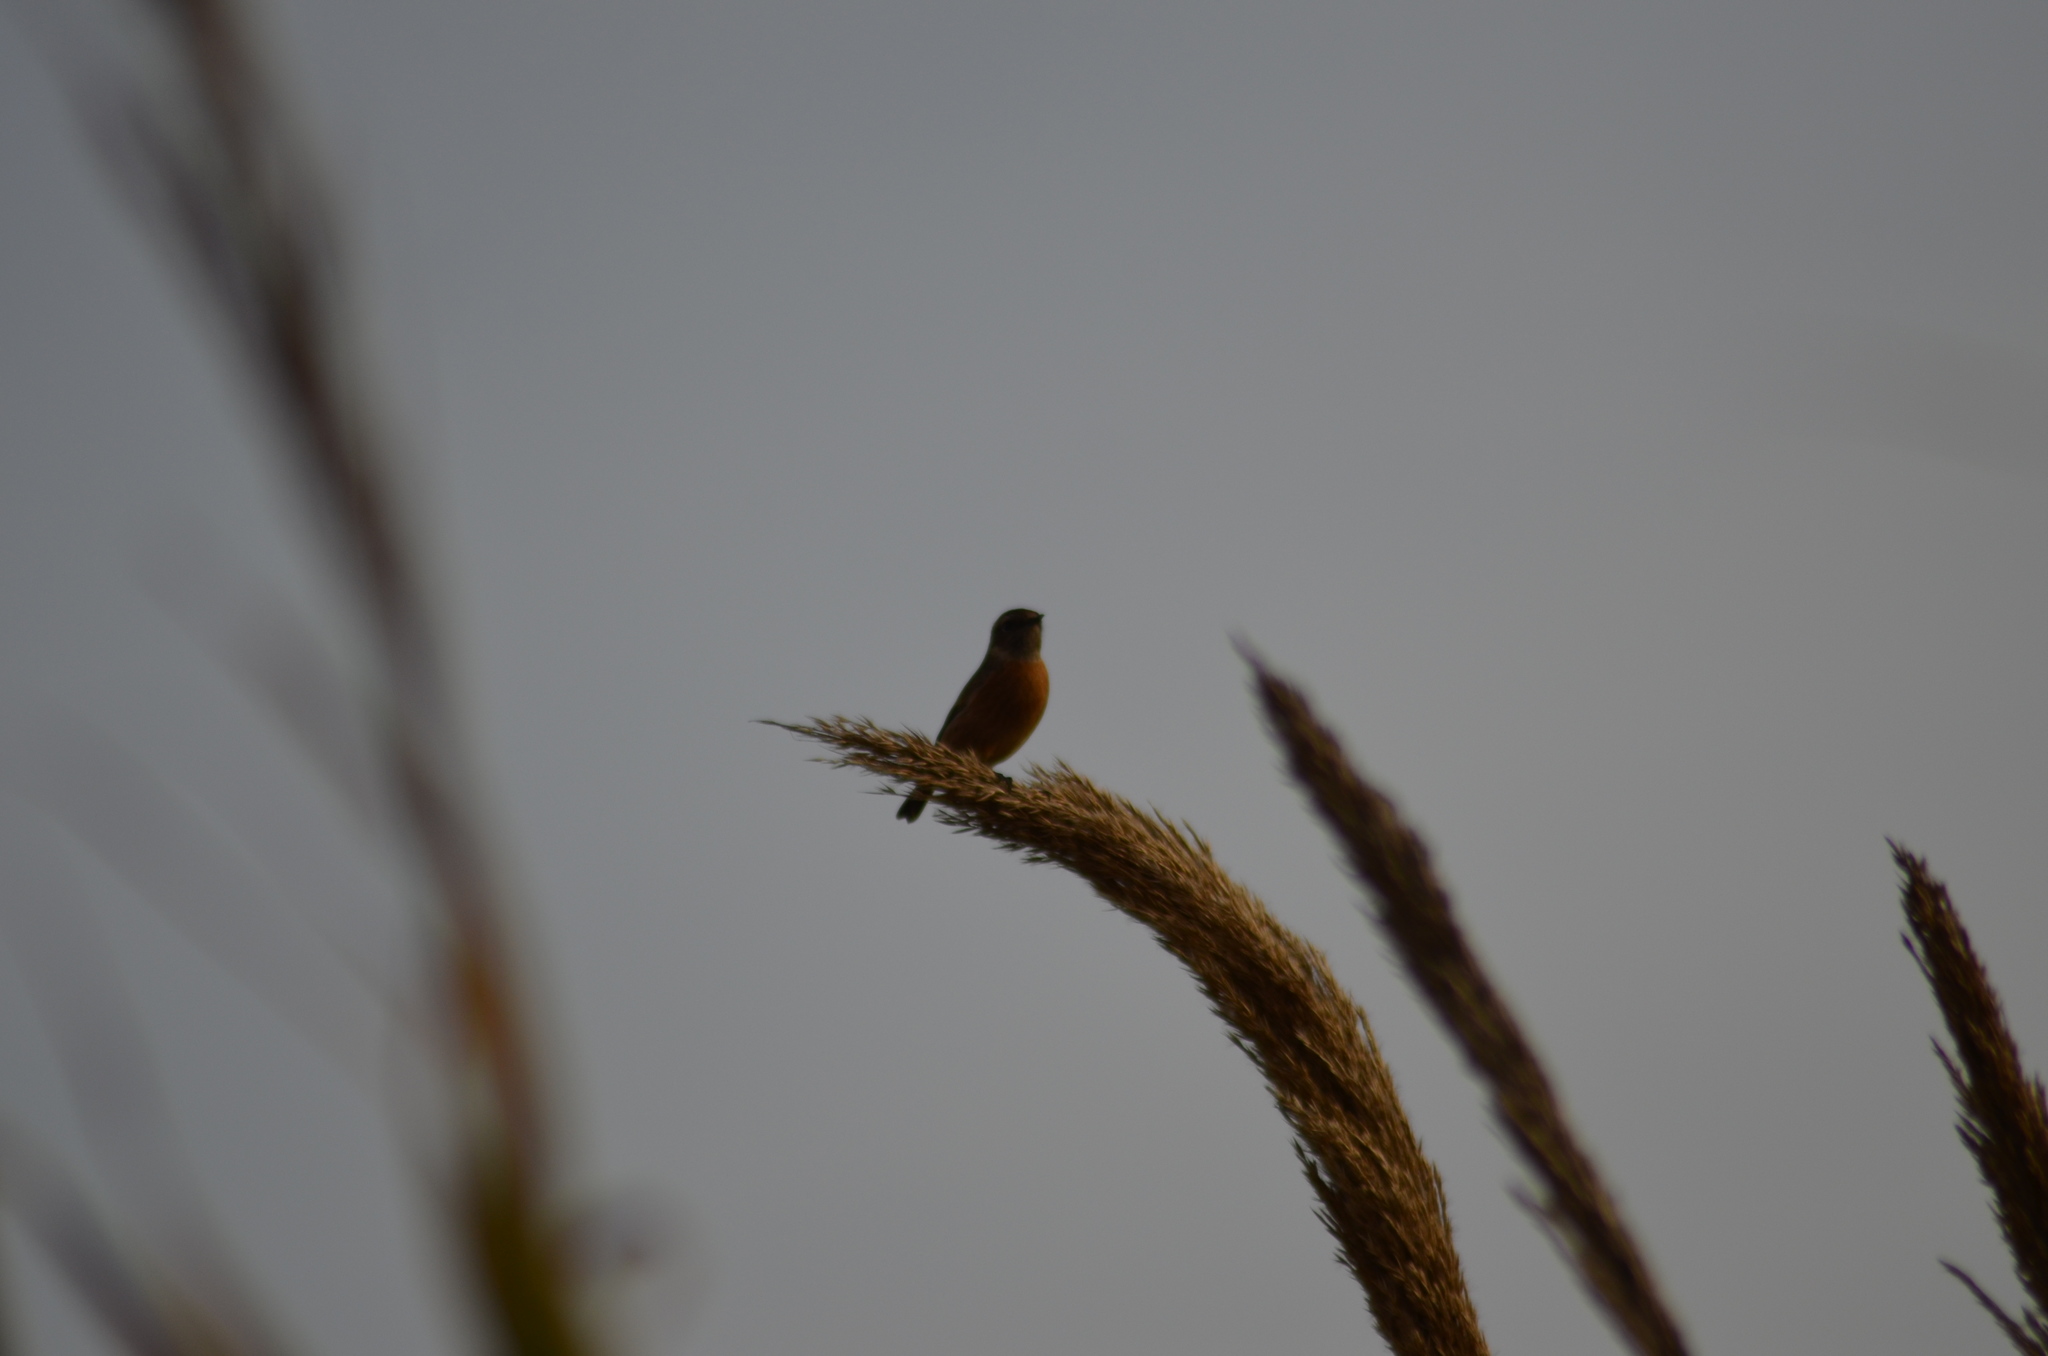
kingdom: Animalia
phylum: Chordata
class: Aves
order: Passeriformes
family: Muscicapidae
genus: Saxicola
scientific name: Saxicola rubicola
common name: European stonechat
